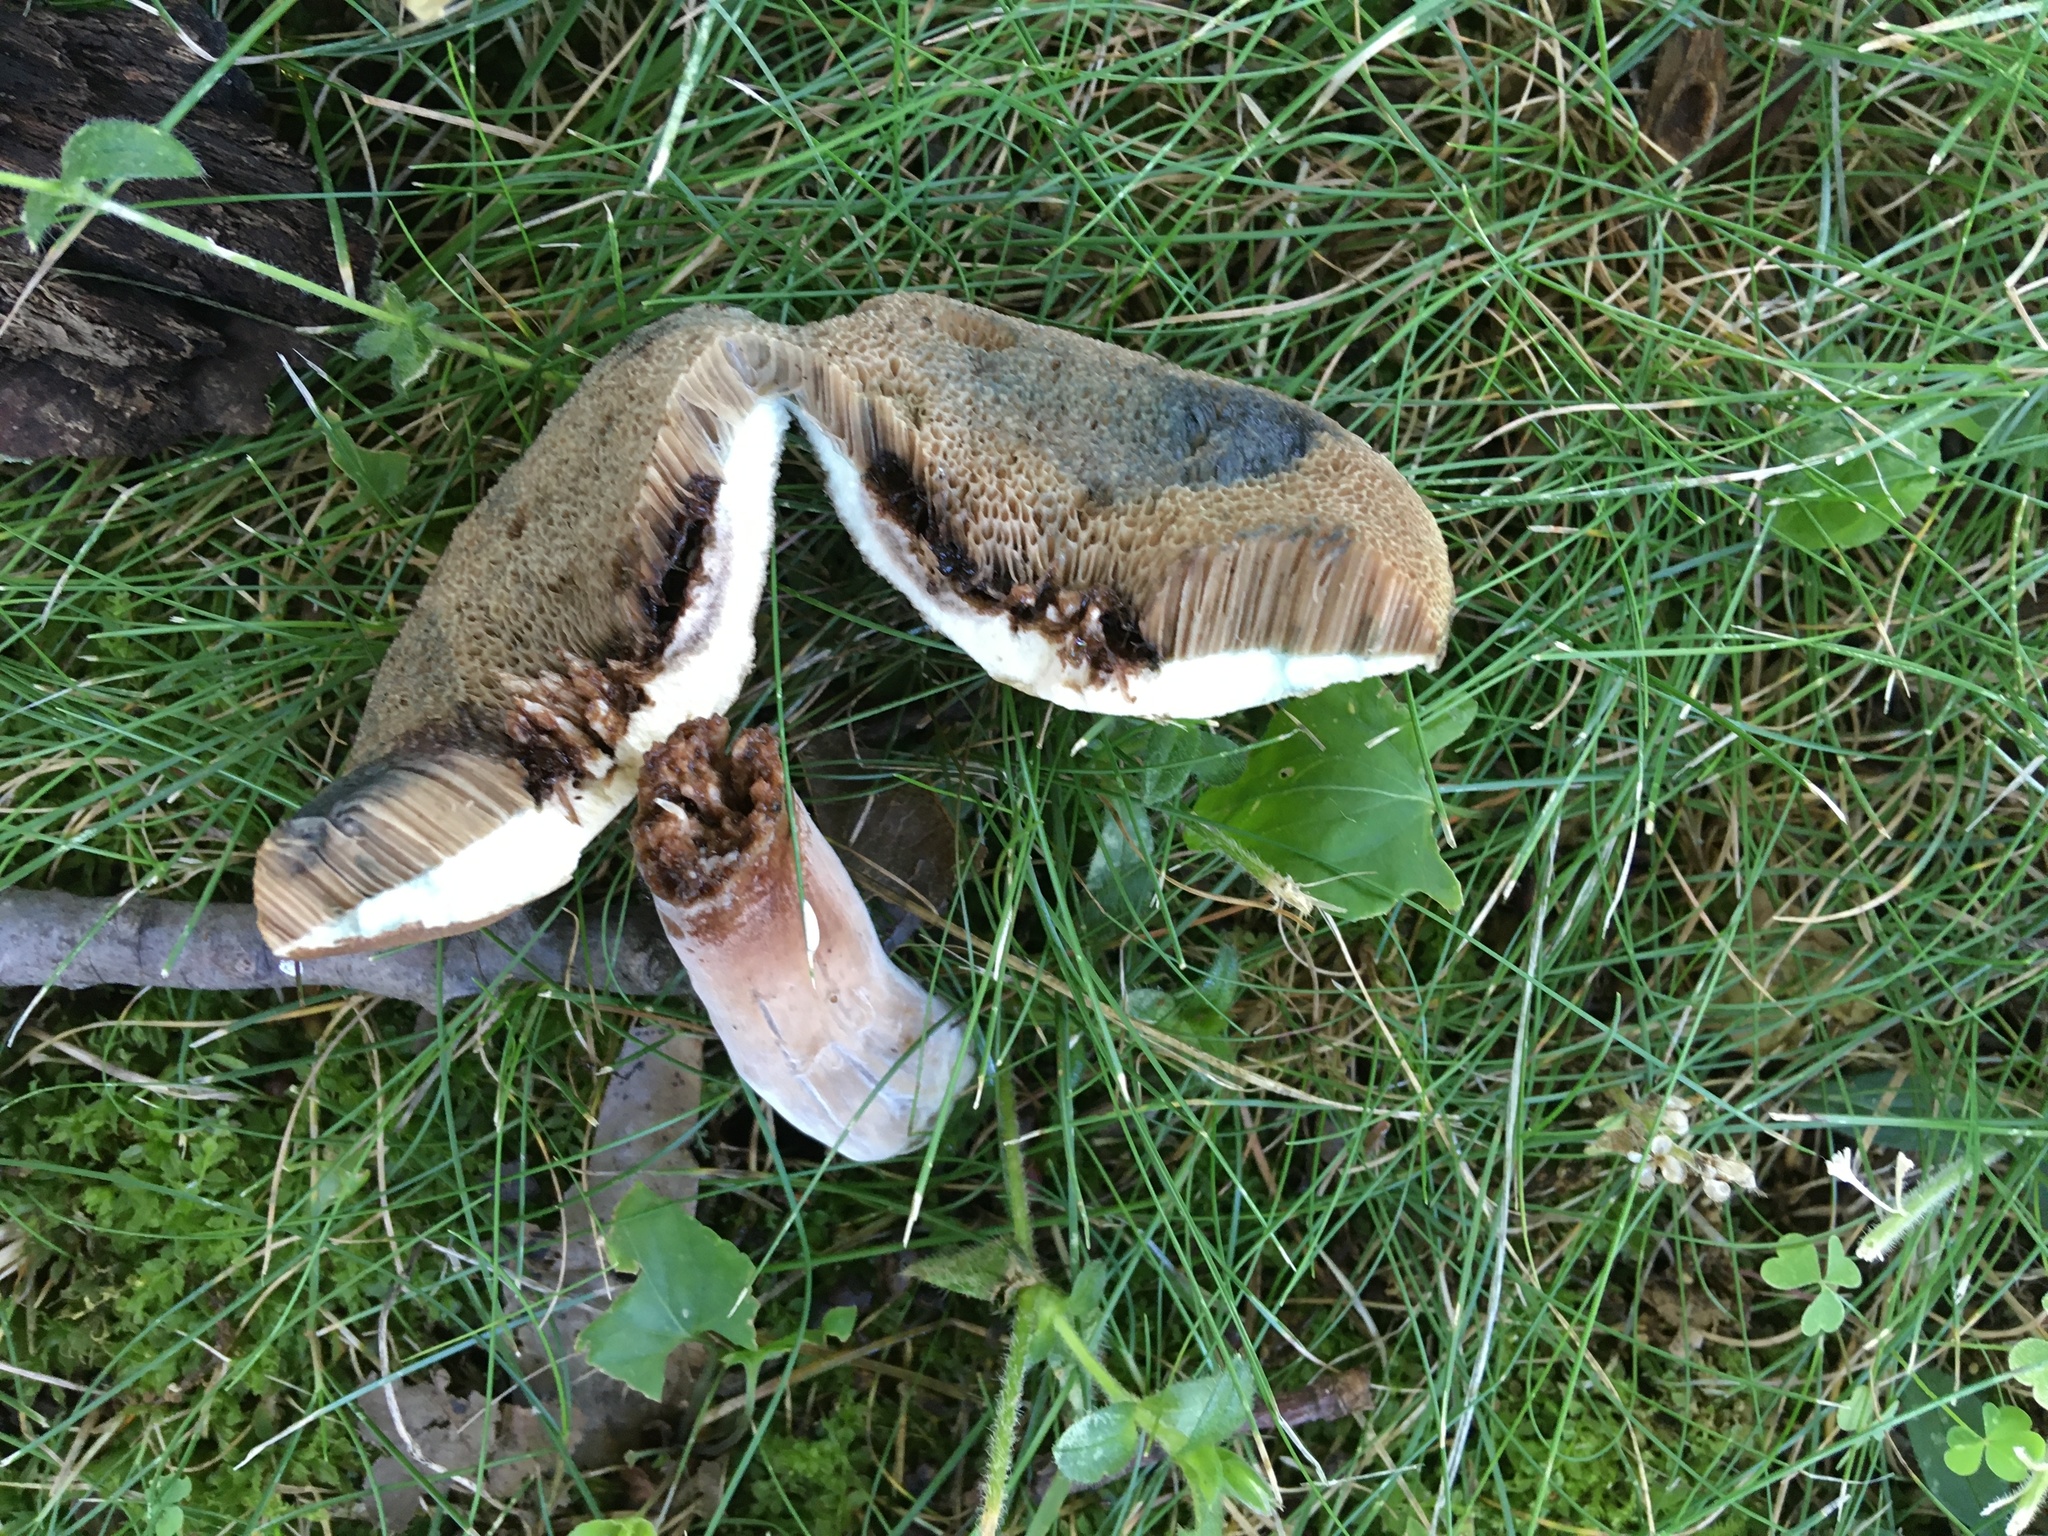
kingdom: Fungi
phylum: Basidiomycota
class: Agaricomycetes
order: Boletales
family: Boletaceae
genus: Porphyrellus
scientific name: Porphyrellus sordidus
